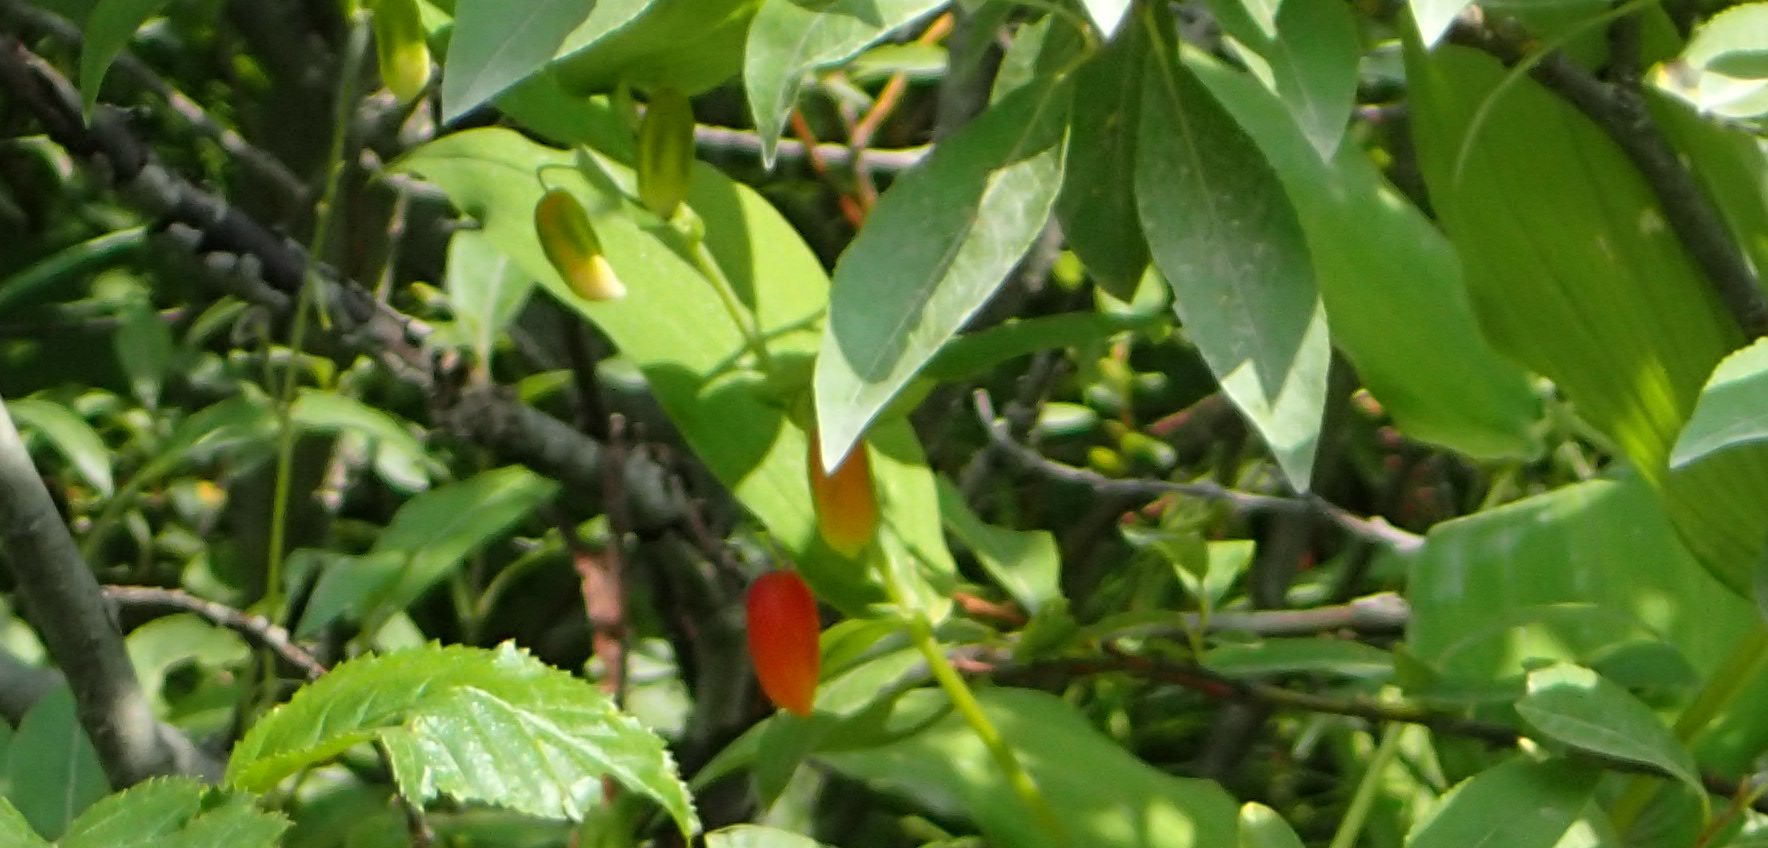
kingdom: Plantae
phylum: Tracheophyta
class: Liliopsida
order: Liliales
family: Liliaceae
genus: Streptopus
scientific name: Streptopus amplexifolius
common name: Clasp twisted stalk
